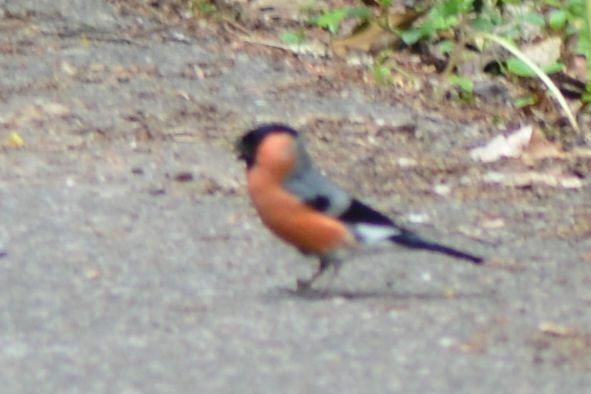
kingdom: Animalia
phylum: Chordata
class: Aves
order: Passeriformes
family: Fringillidae
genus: Pyrrhula
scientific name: Pyrrhula pyrrhula
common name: Eurasian bullfinch
